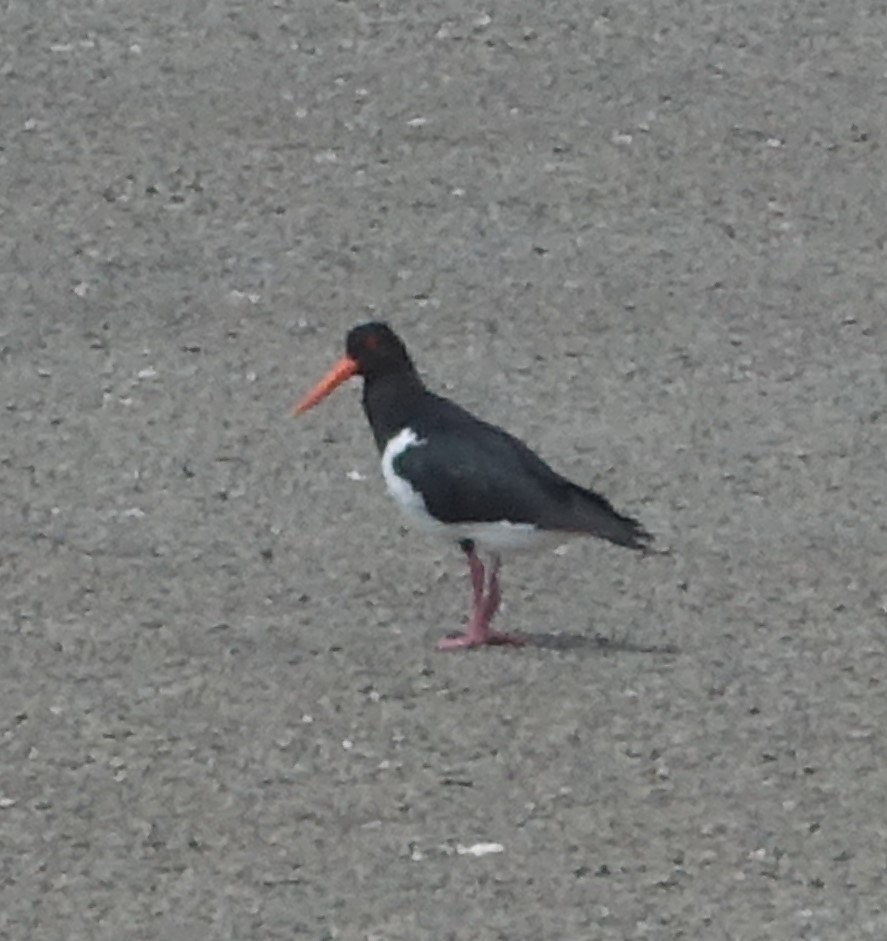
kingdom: Animalia
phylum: Chordata
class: Aves
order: Charadriiformes
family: Haematopodidae
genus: Haematopus
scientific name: Haematopus longirostris
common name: Pied oystercatcher
